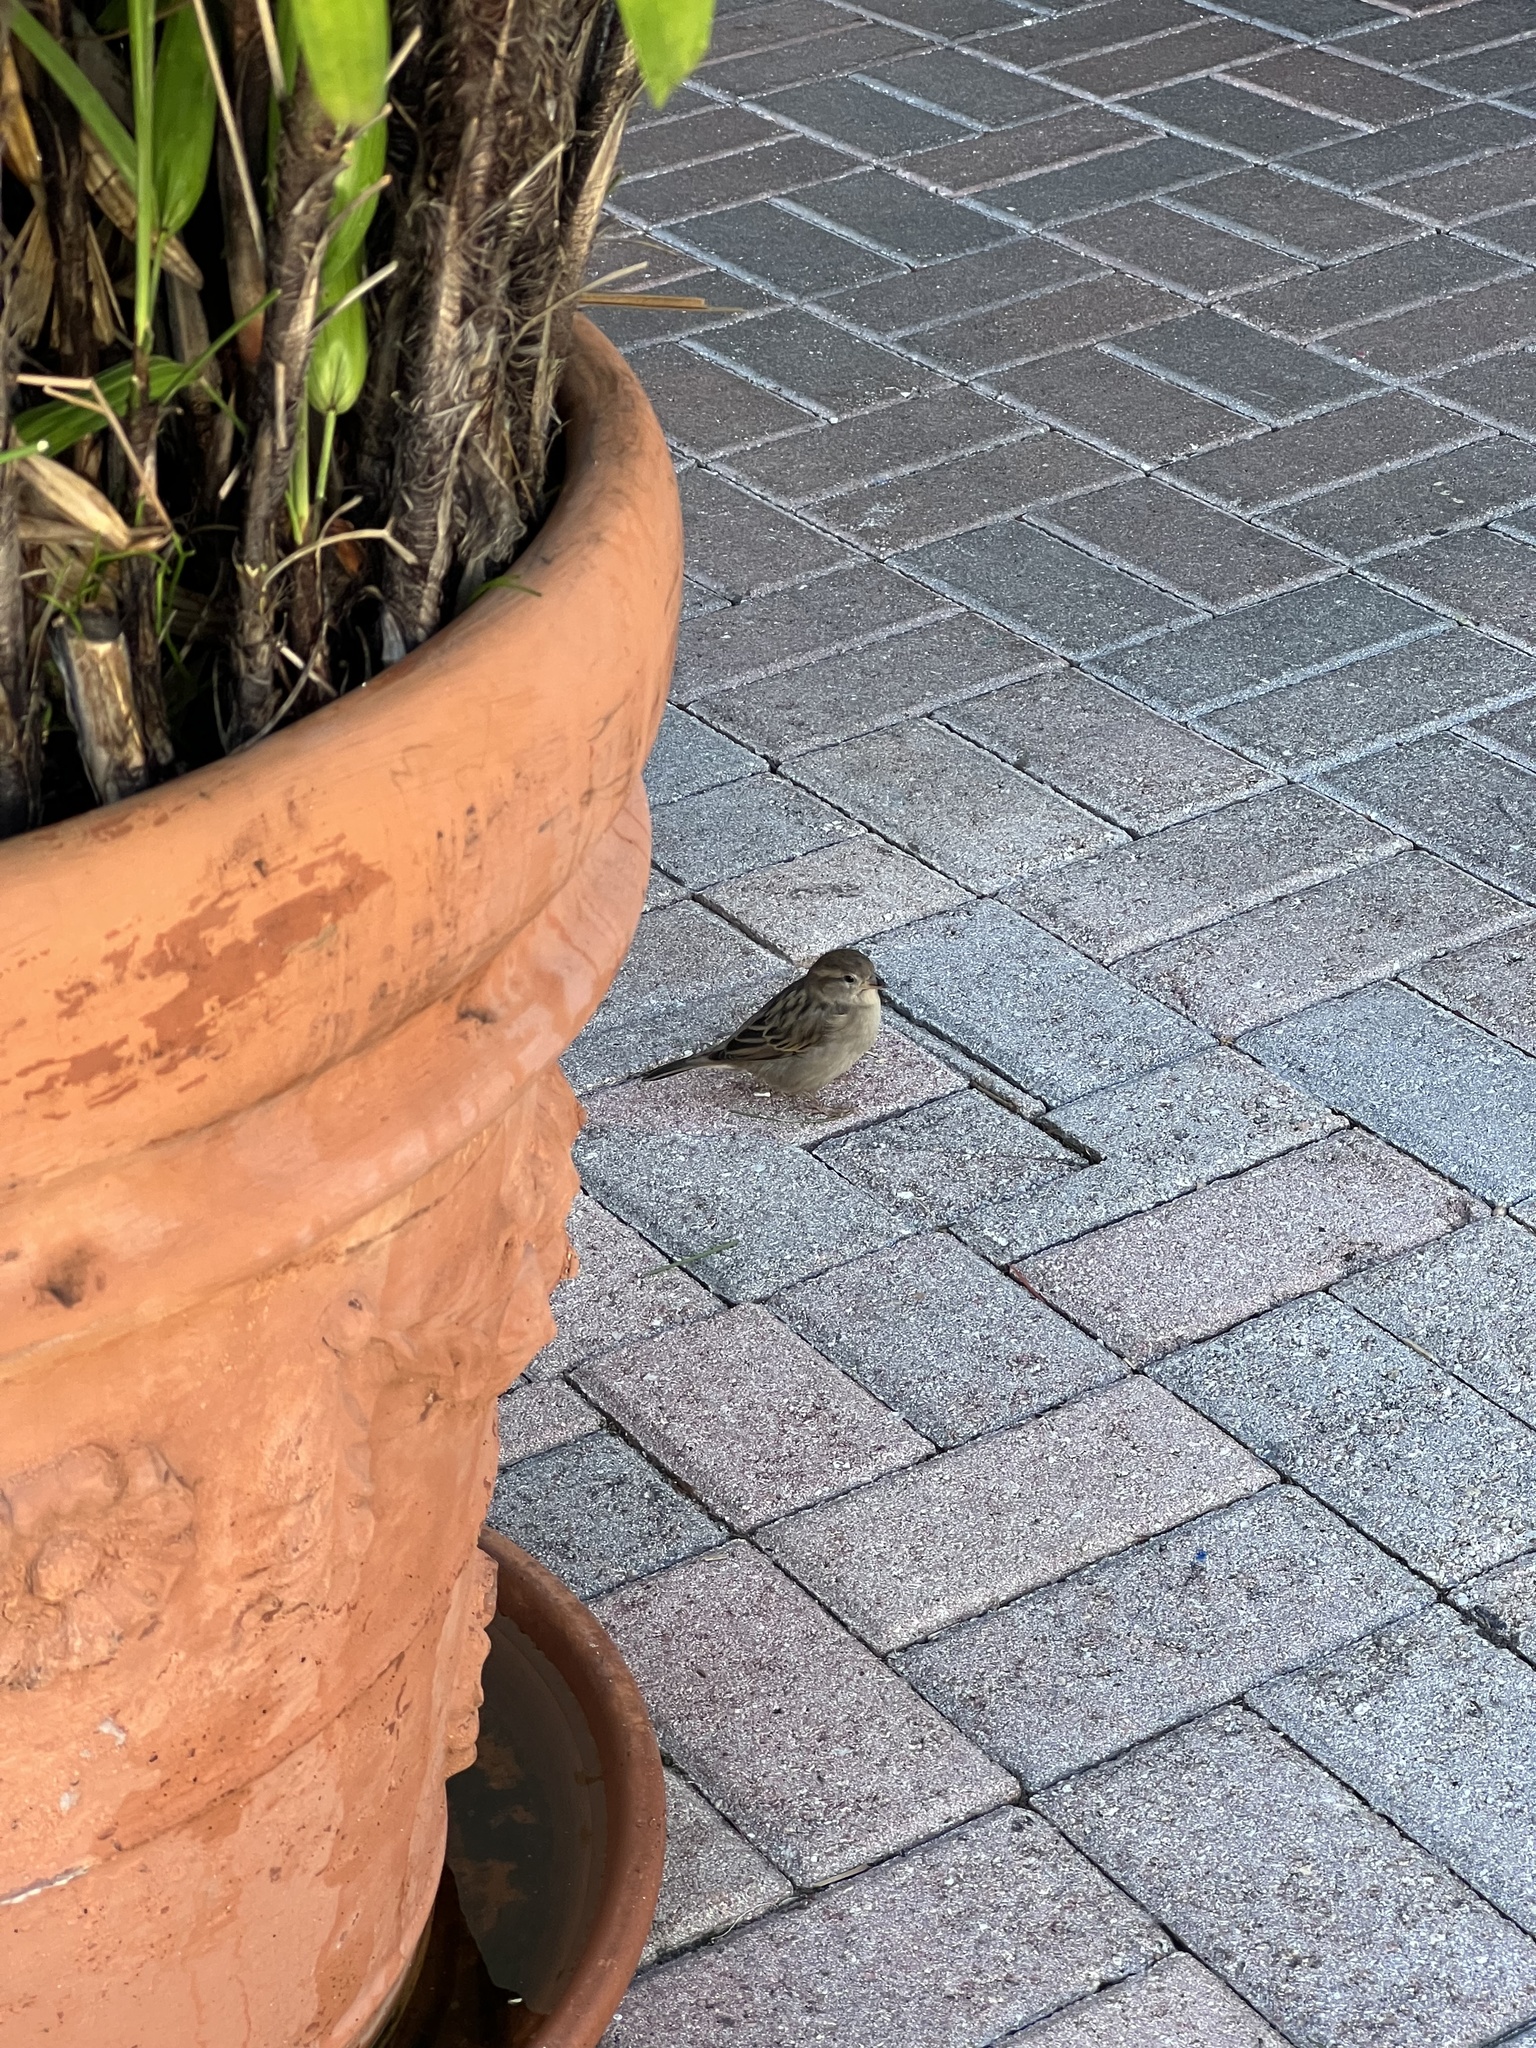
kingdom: Animalia
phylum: Chordata
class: Aves
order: Passeriformes
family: Passeridae
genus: Passer
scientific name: Passer domesticus
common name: House sparrow
